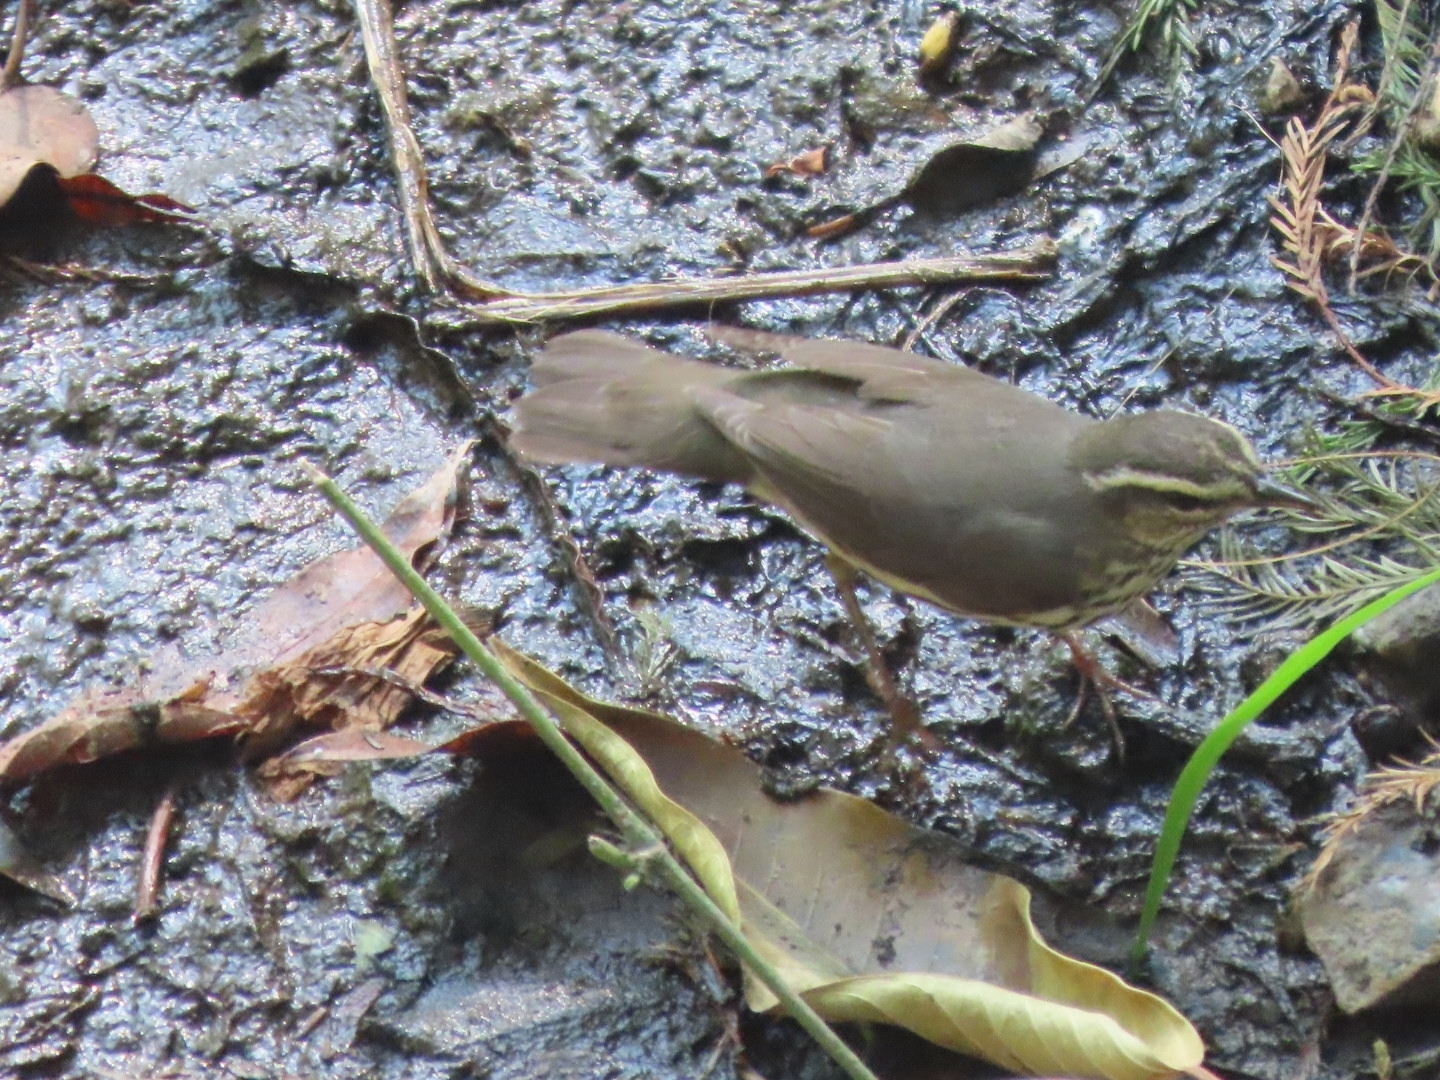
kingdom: Animalia
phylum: Chordata
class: Aves
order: Passeriformes
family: Parulidae
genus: Parkesia
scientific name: Parkesia noveboracensis
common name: Northern waterthrush
